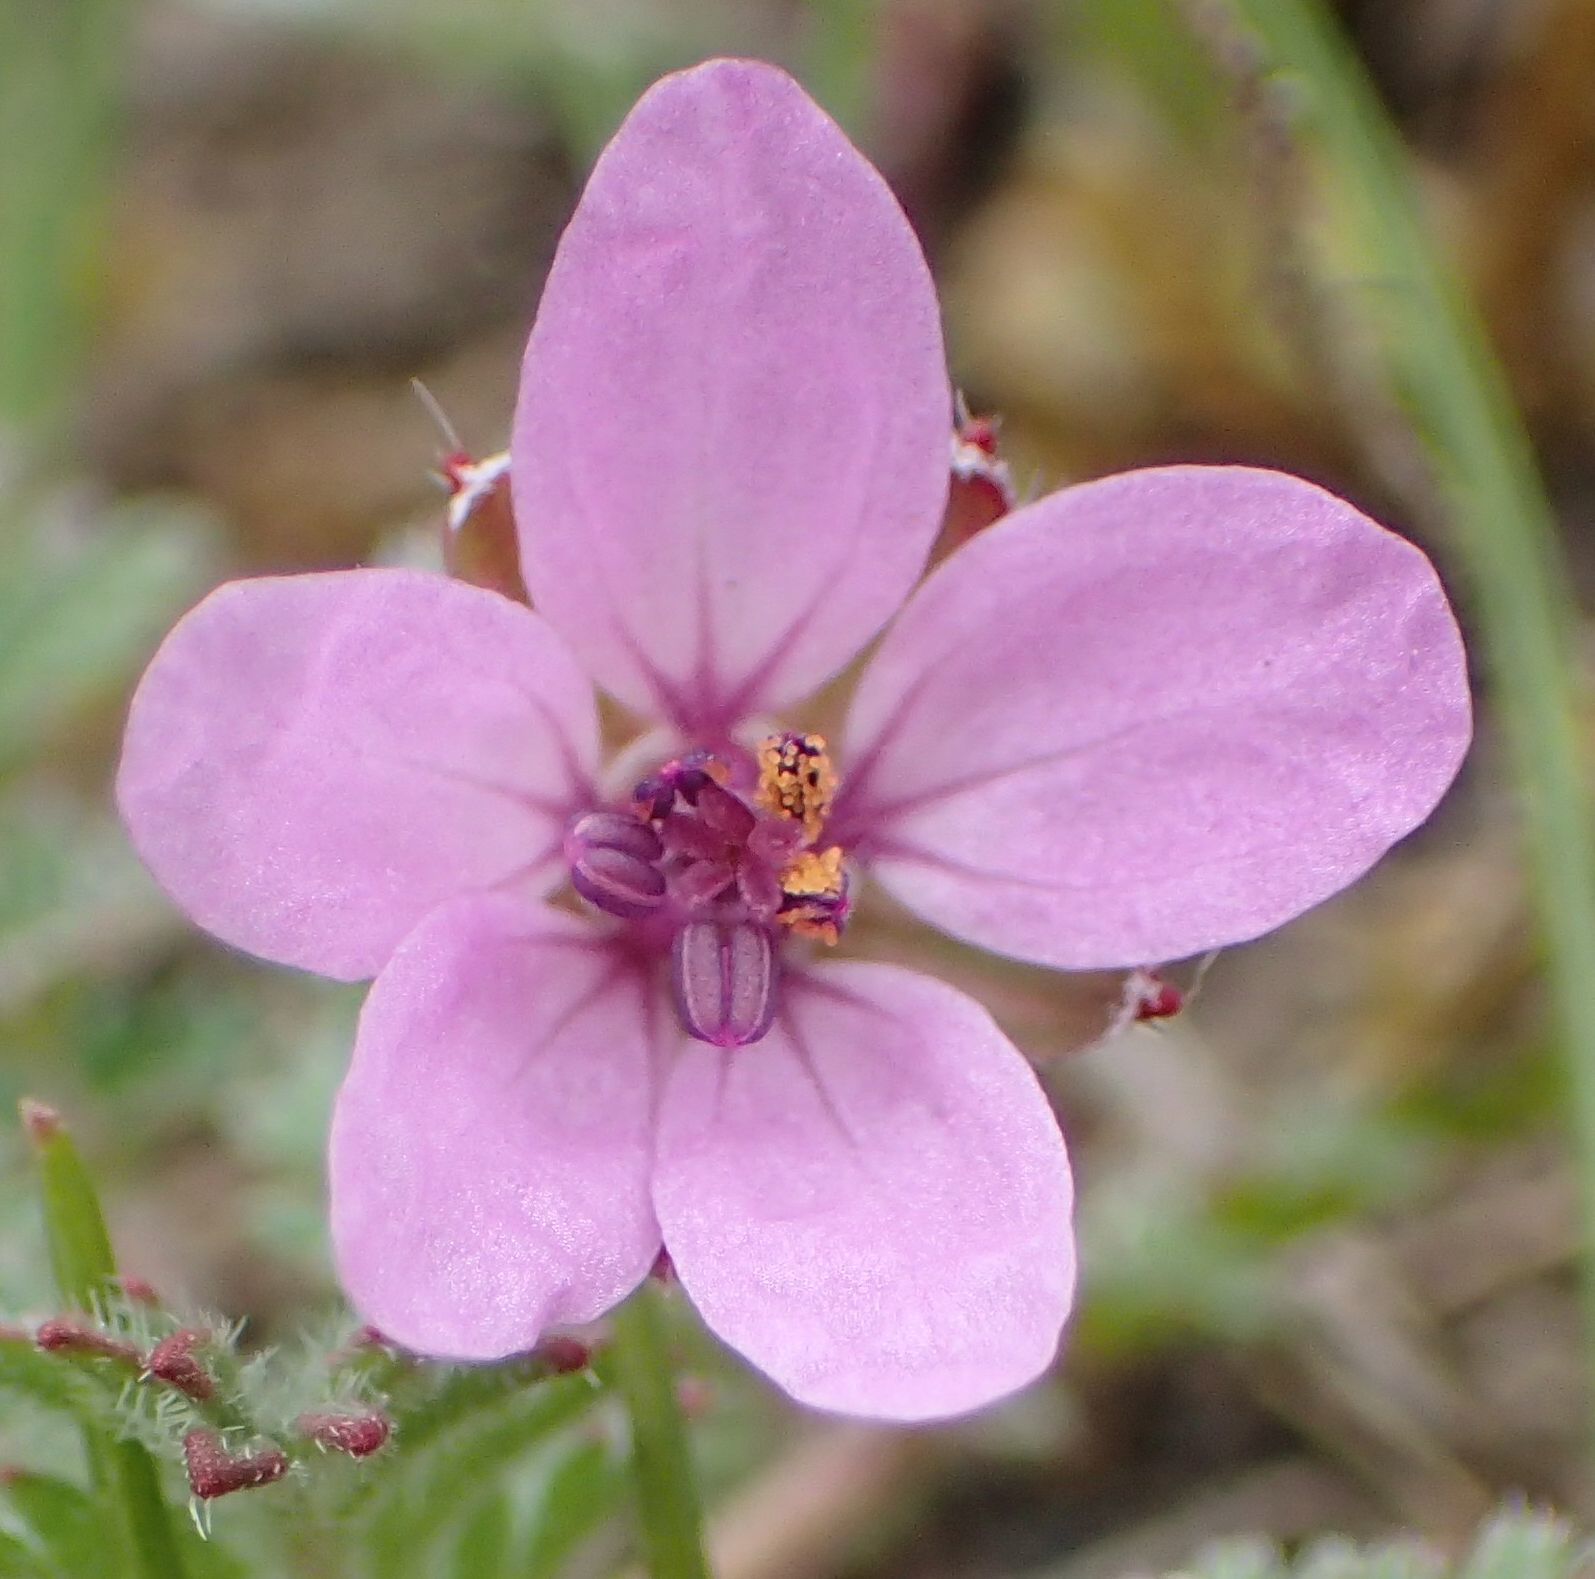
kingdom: Plantae
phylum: Tracheophyta
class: Magnoliopsida
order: Geraniales
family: Geraniaceae
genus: Erodium
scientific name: Erodium cicutarium
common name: Common stork's-bill
